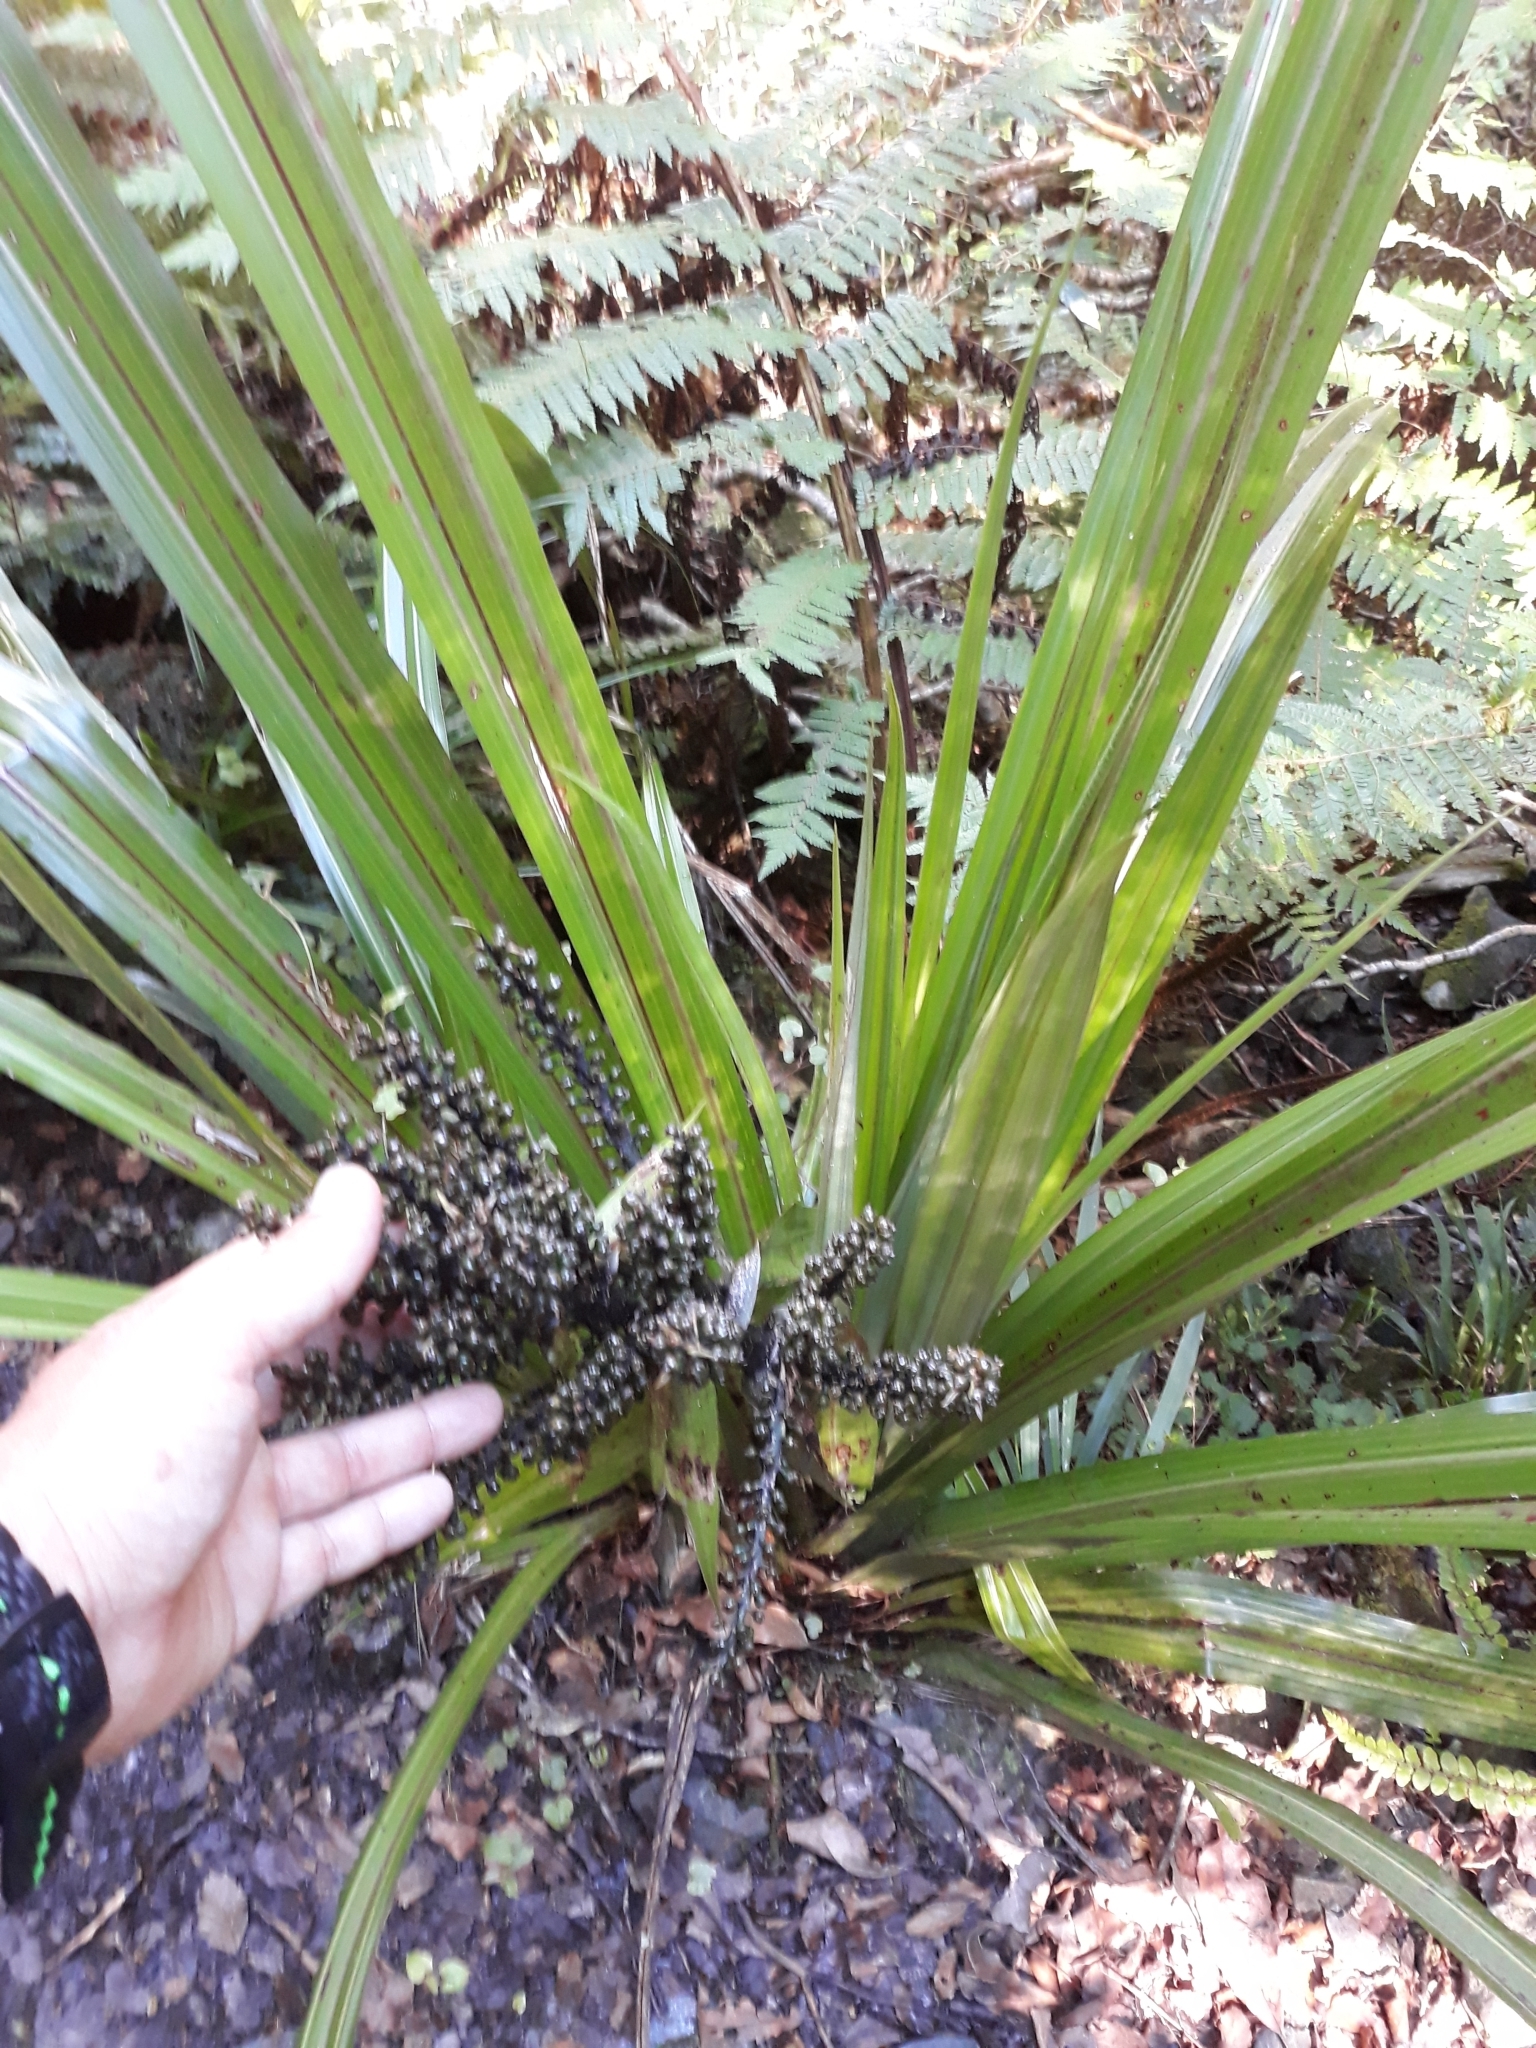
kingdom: Plantae
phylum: Tracheophyta
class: Liliopsida
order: Asparagales
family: Asteliaceae
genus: Astelia
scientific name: Astelia fragrans
